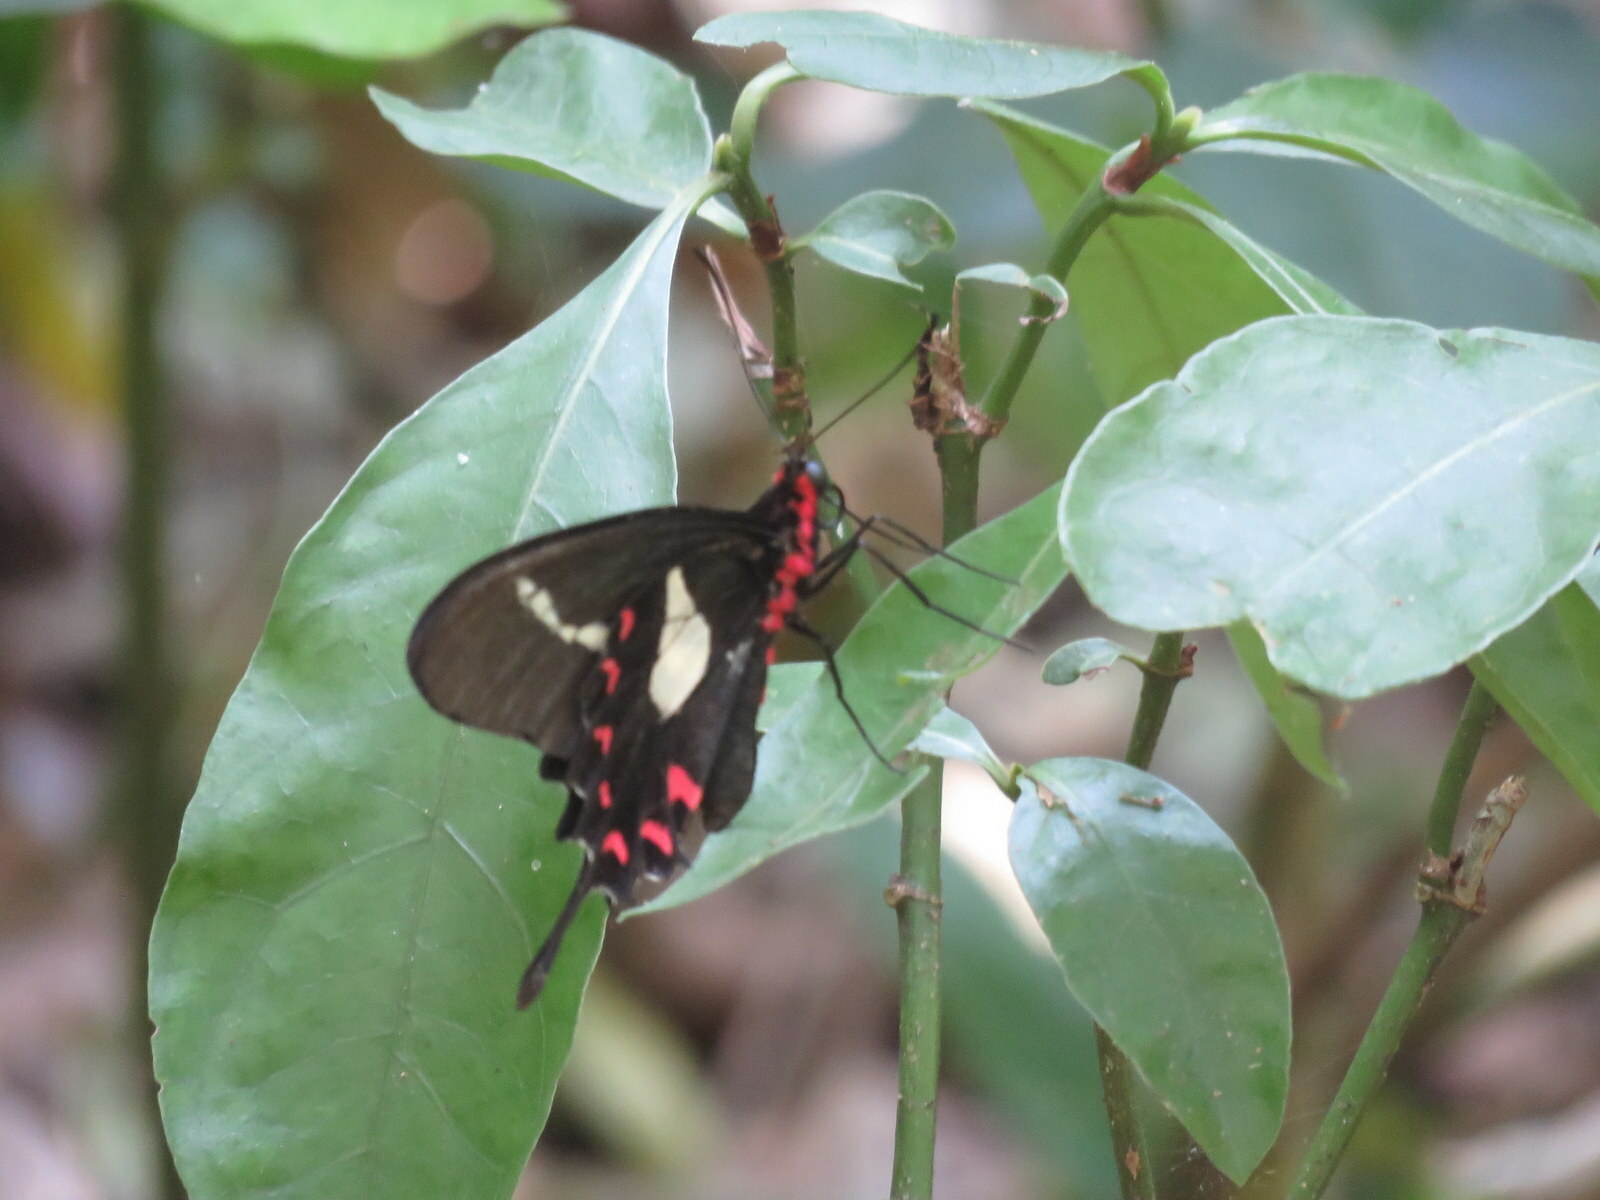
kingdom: Animalia
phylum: Arthropoda
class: Insecta
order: Lepidoptera
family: Papilionidae
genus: Parides
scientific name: Parides agavus
